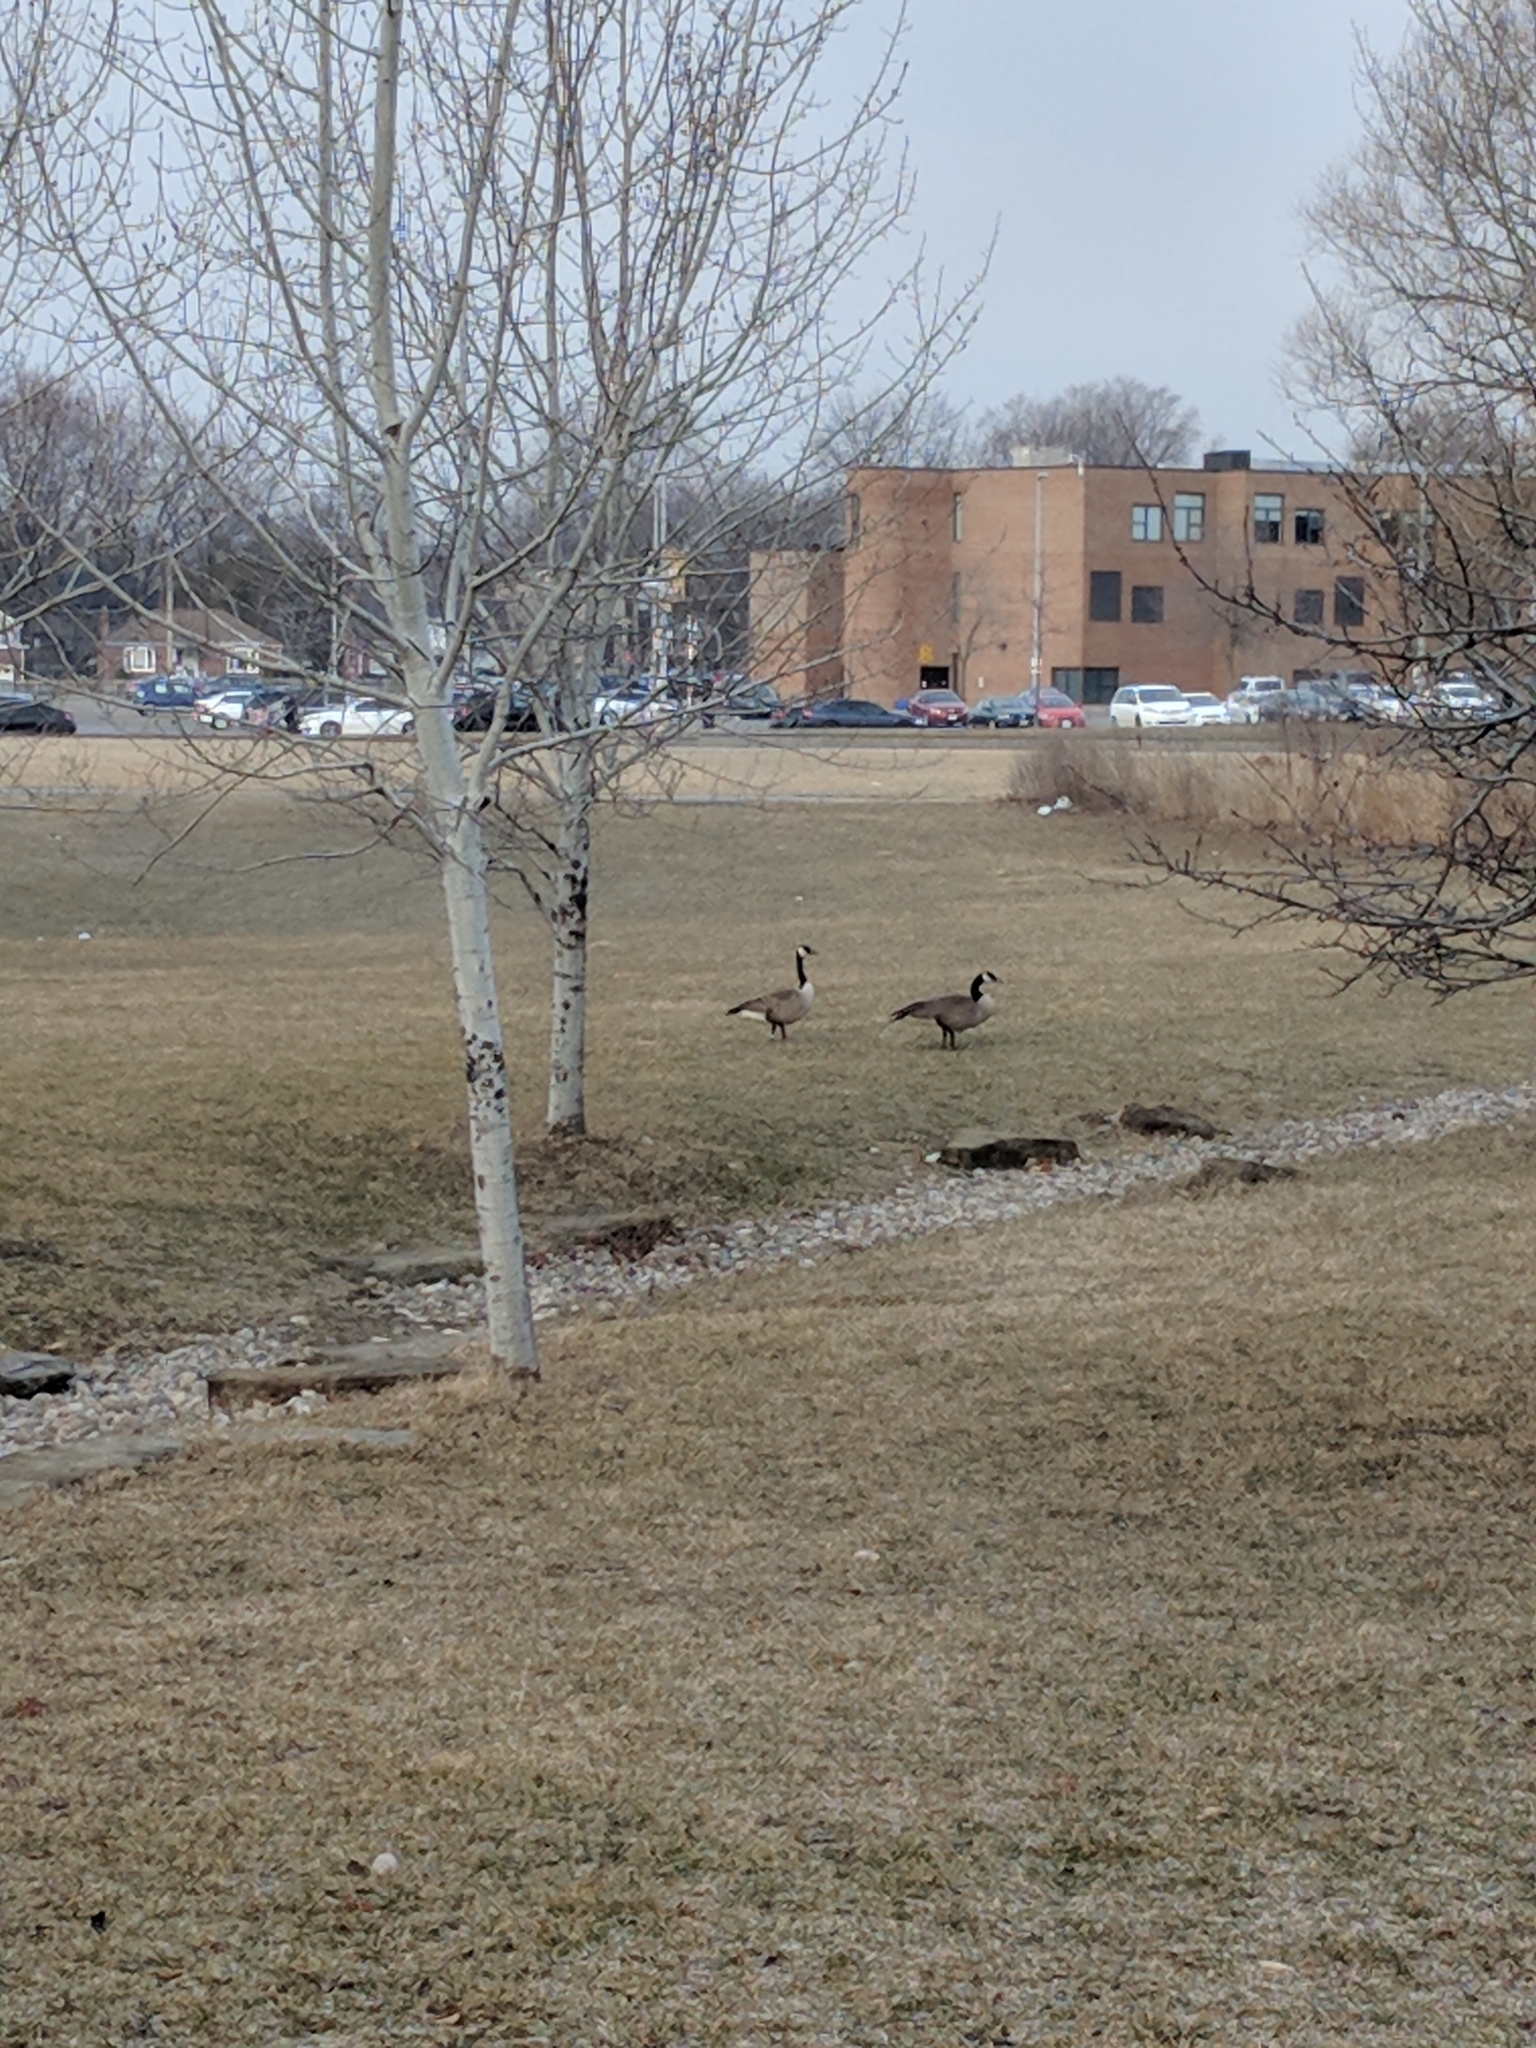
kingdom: Animalia
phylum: Chordata
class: Aves
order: Anseriformes
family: Anatidae
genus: Branta
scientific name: Branta canadensis
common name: Canada goose
